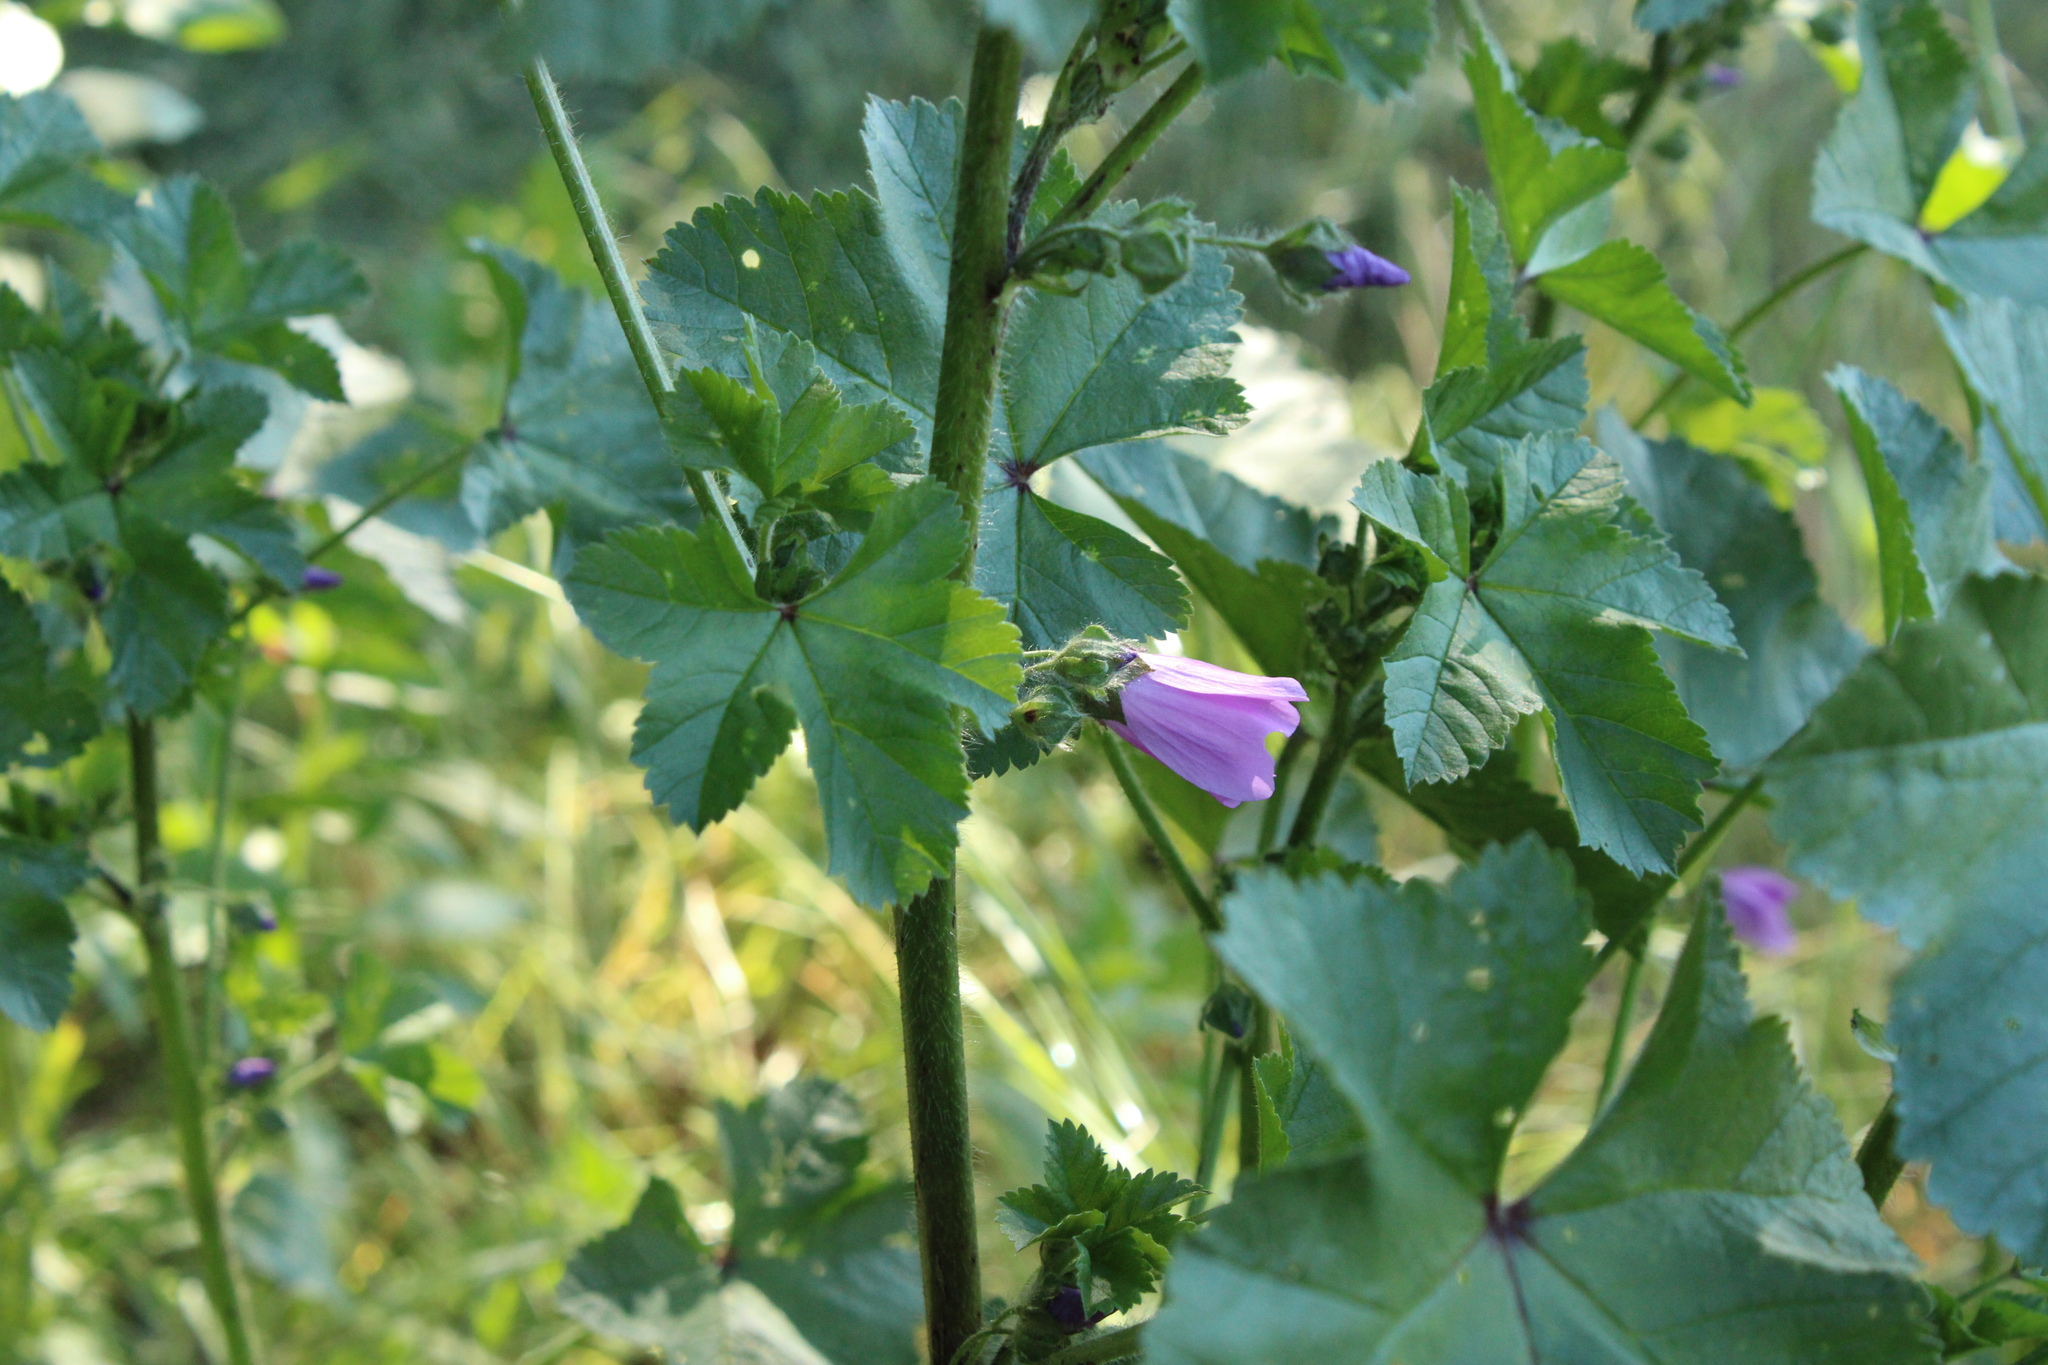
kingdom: Plantae
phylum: Tracheophyta
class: Magnoliopsida
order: Malvales
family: Malvaceae
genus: Malva
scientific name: Malva sylvestris
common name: Common mallow
